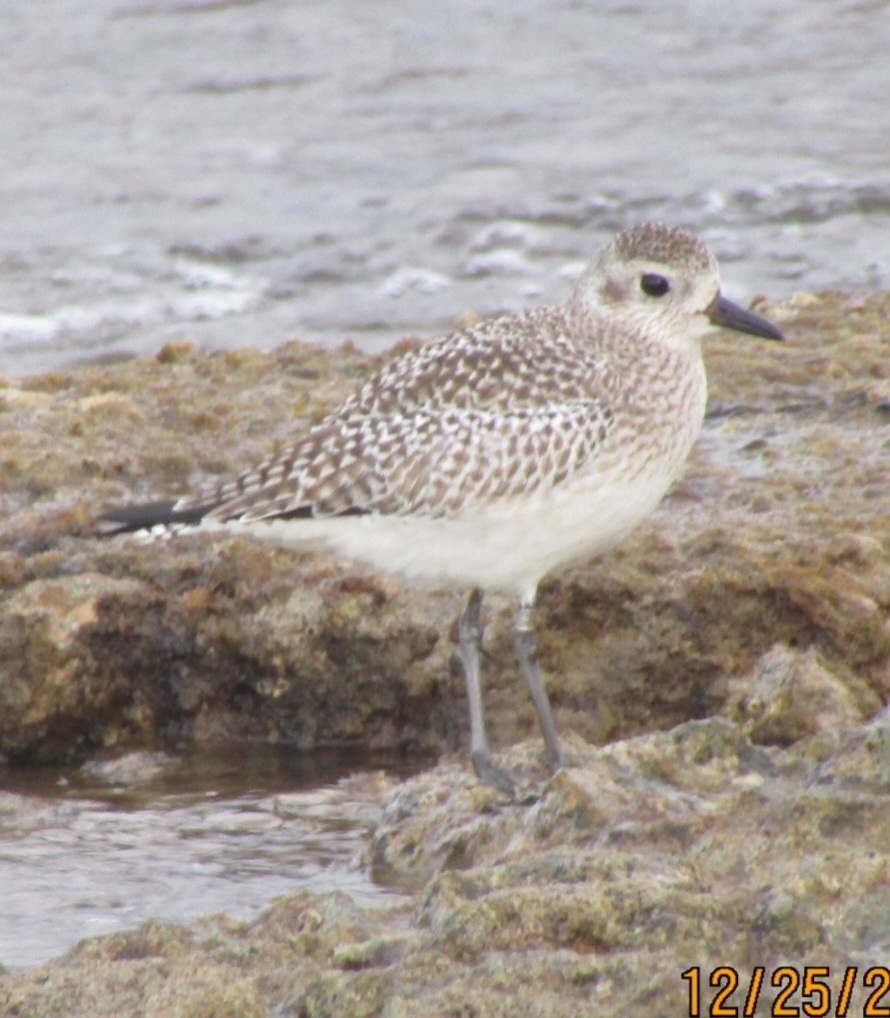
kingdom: Animalia
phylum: Chordata
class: Aves
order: Charadriiformes
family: Charadriidae
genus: Pluvialis
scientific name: Pluvialis squatarola
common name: Grey plover
